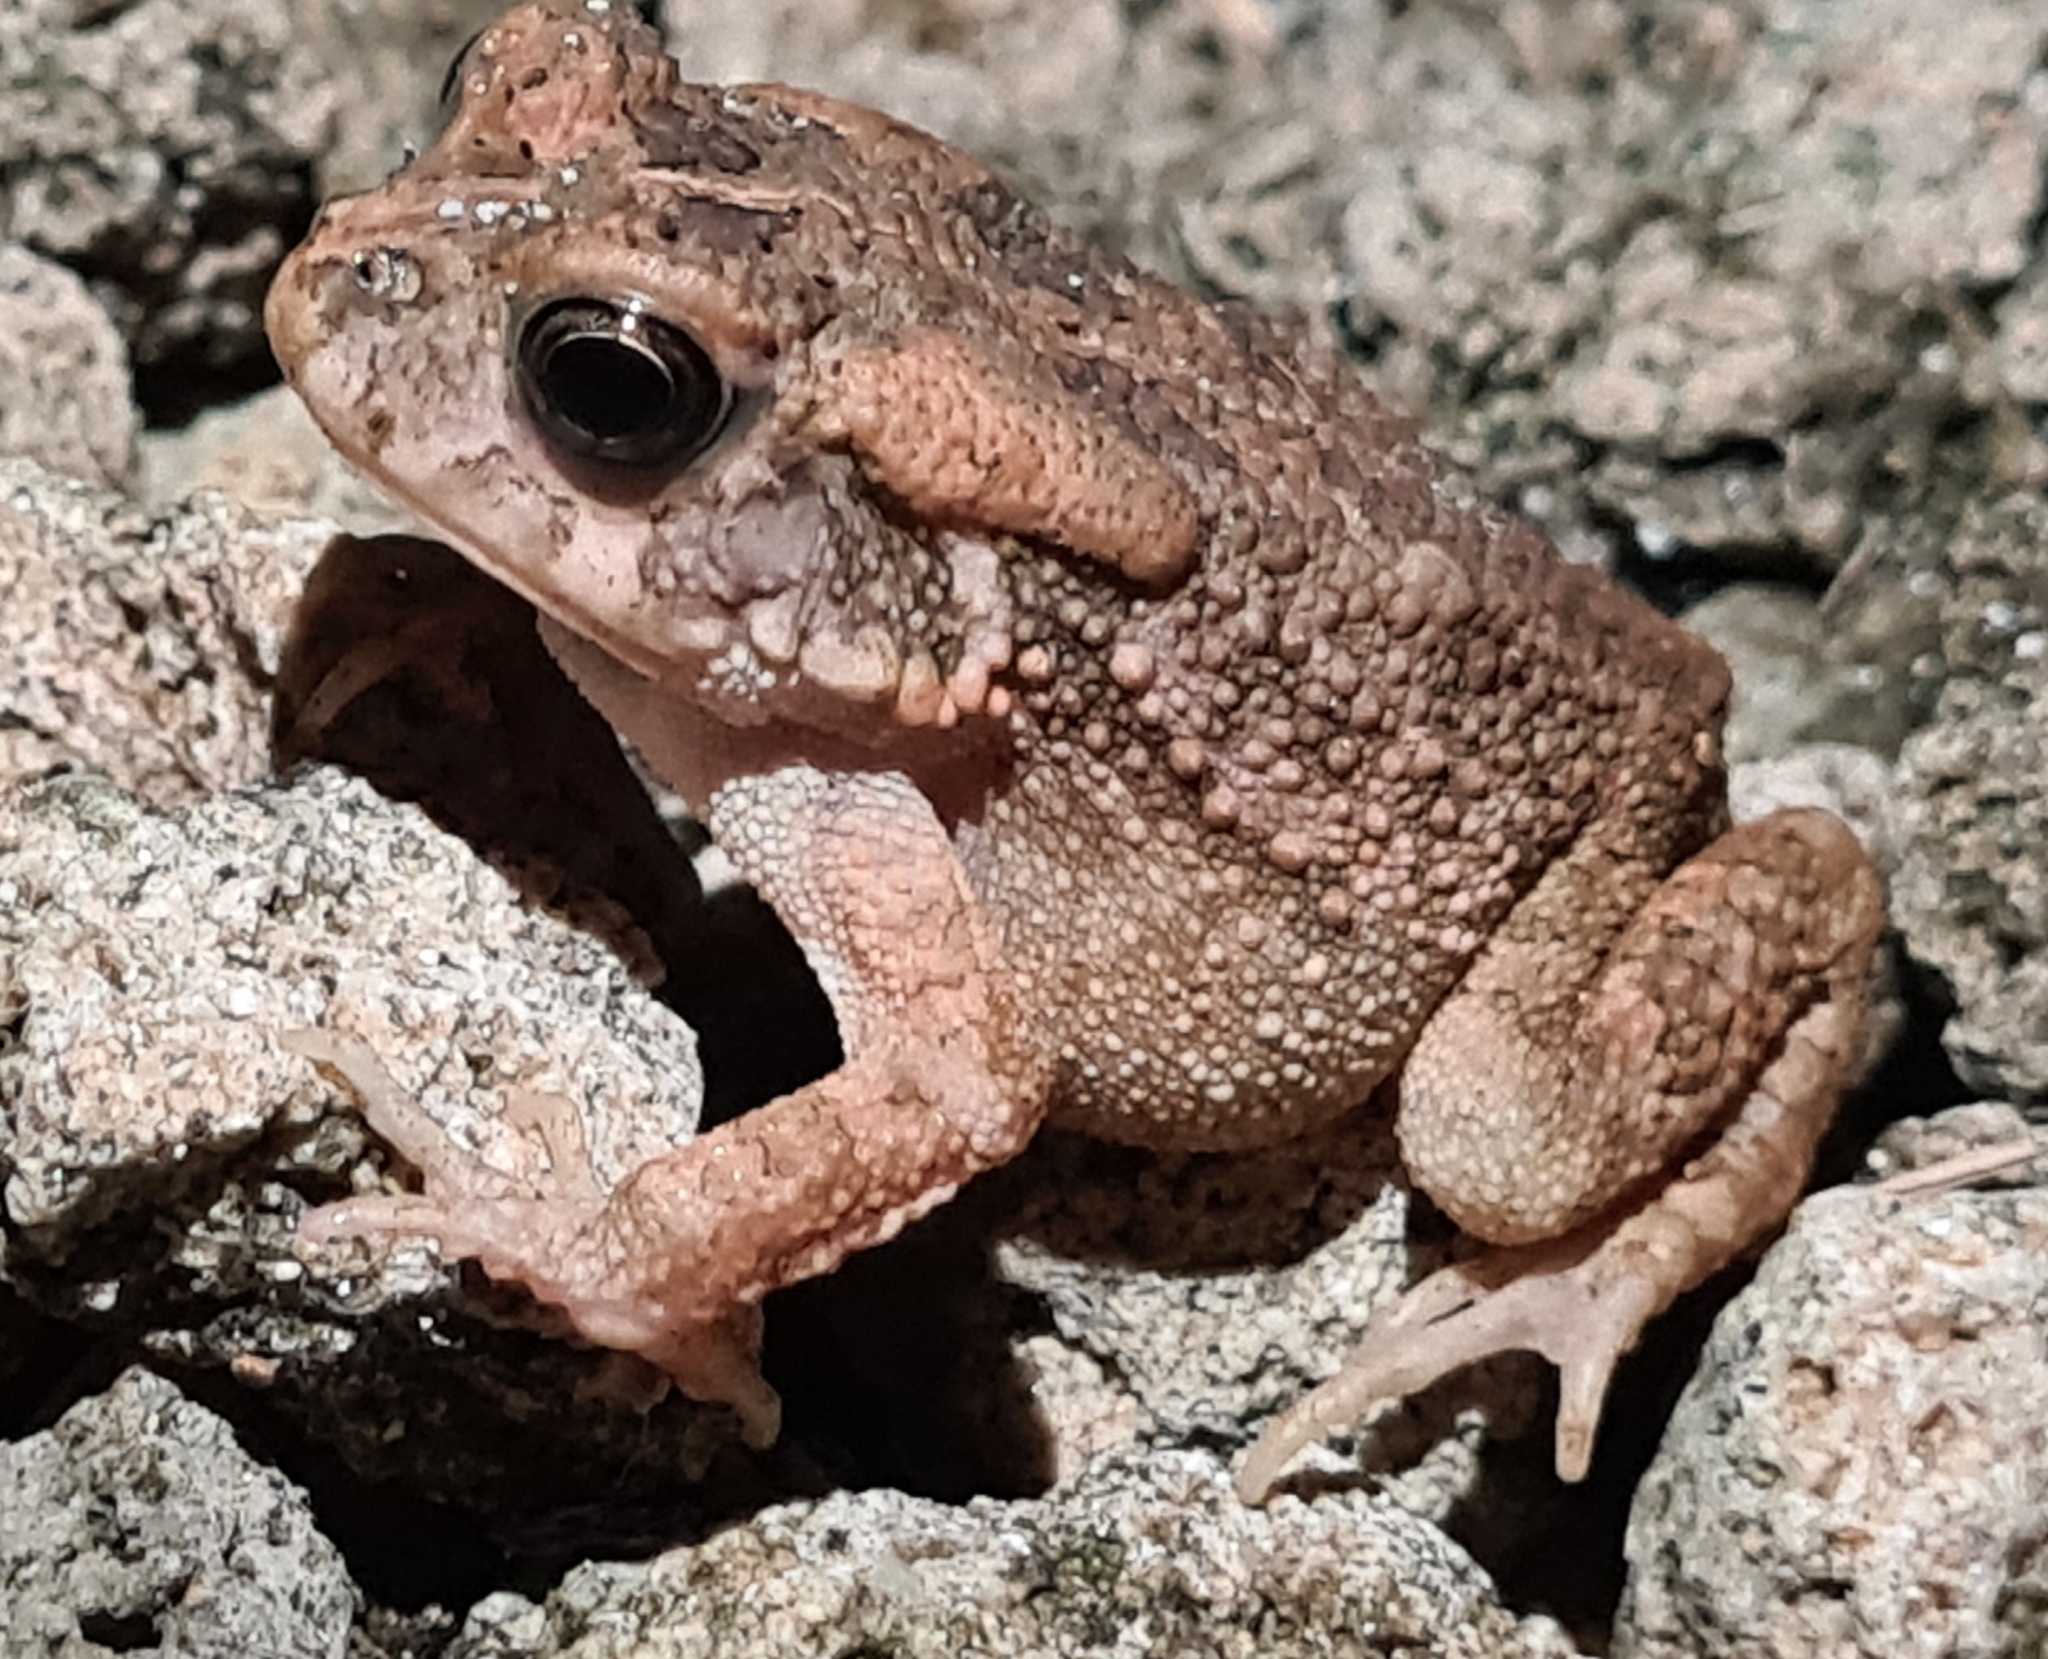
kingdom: Animalia
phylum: Chordata
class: Amphibia
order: Anura
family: Bufonidae
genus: Sclerophrys
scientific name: Sclerophrys gutturalis
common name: African common toad
